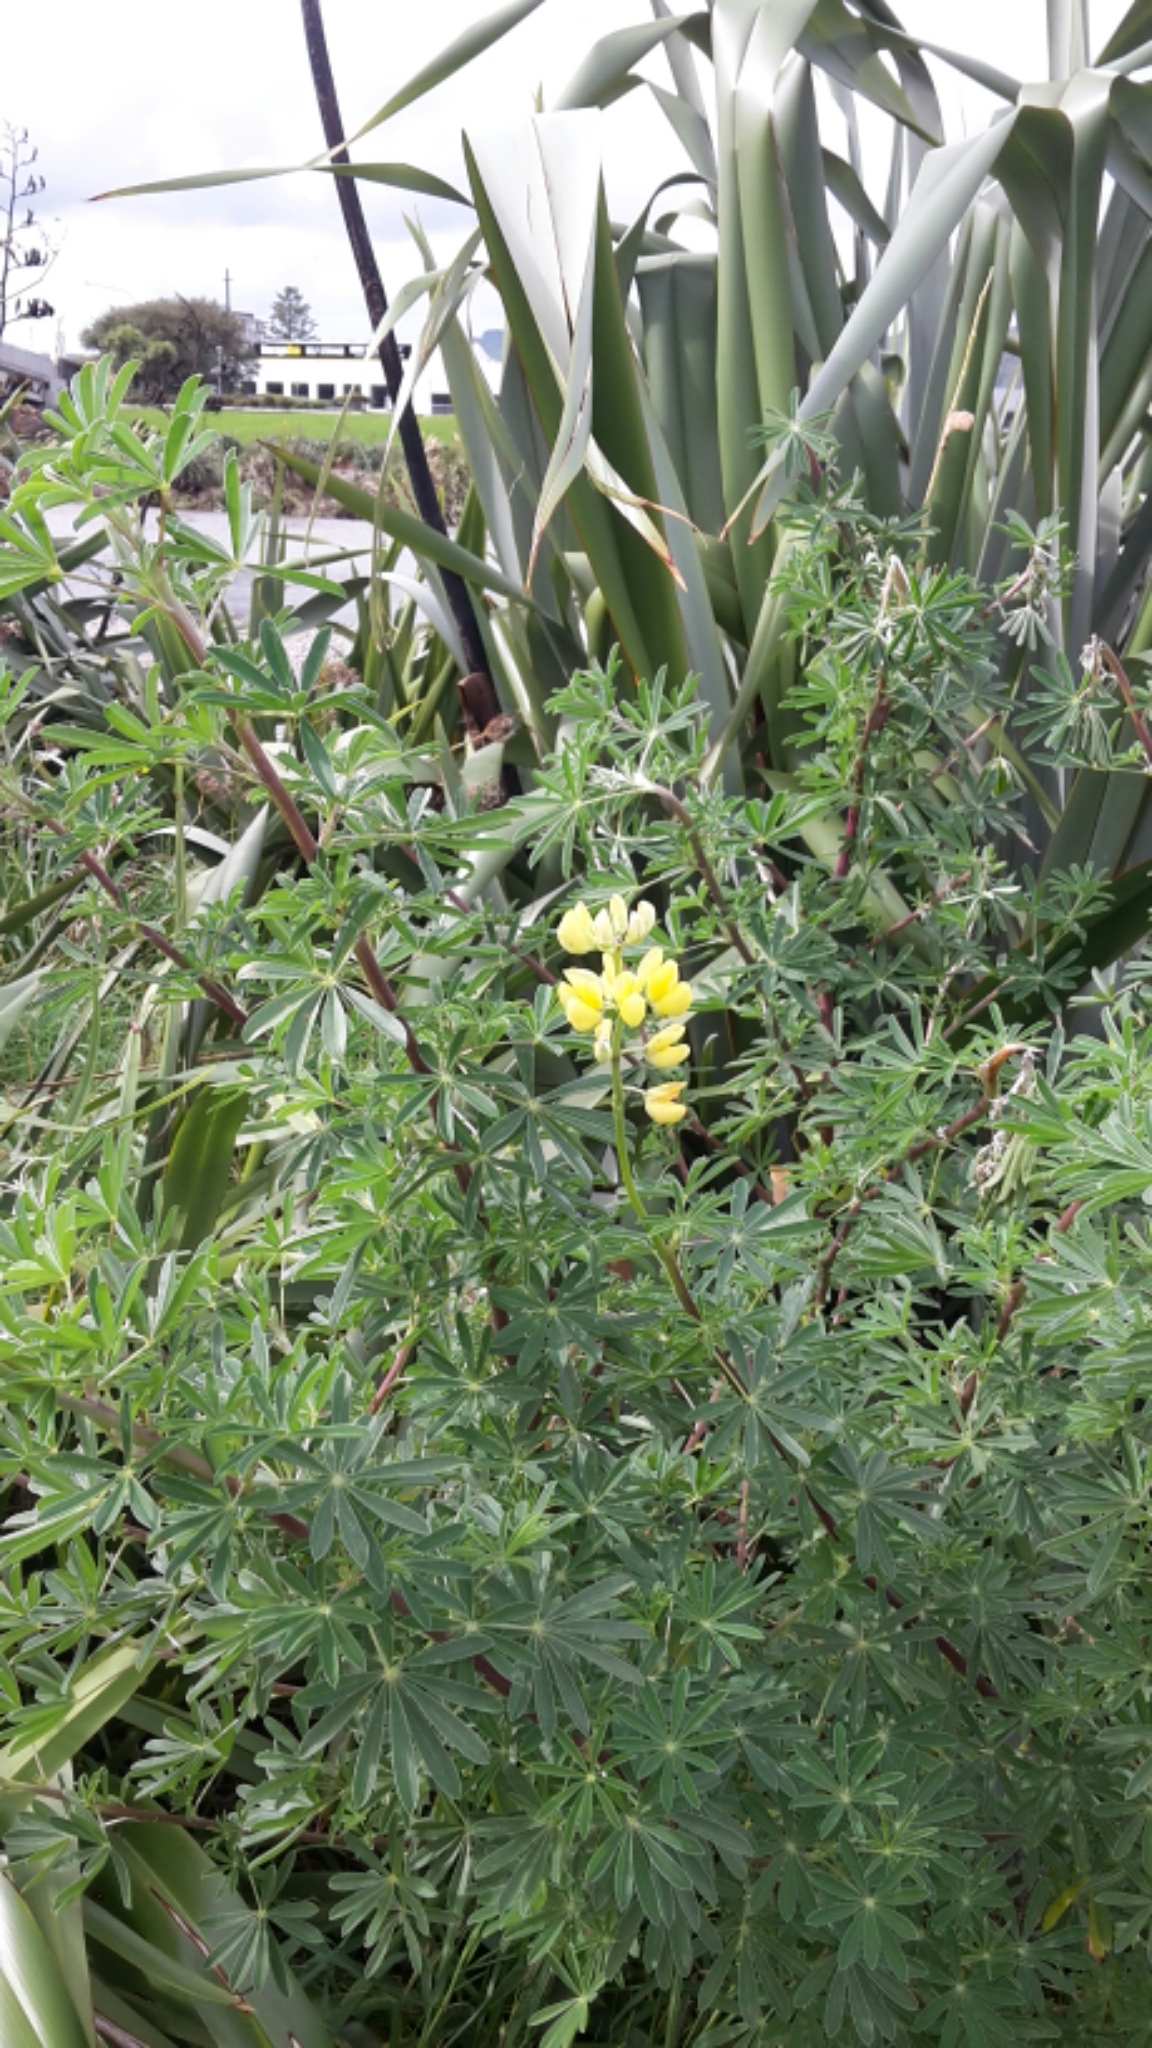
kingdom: Plantae
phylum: Tracheophyta
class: Magnoliopsida
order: Fabales
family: Fabaceae
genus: Lupinus
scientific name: Lupinus arboreus
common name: Yellow bush lupine
